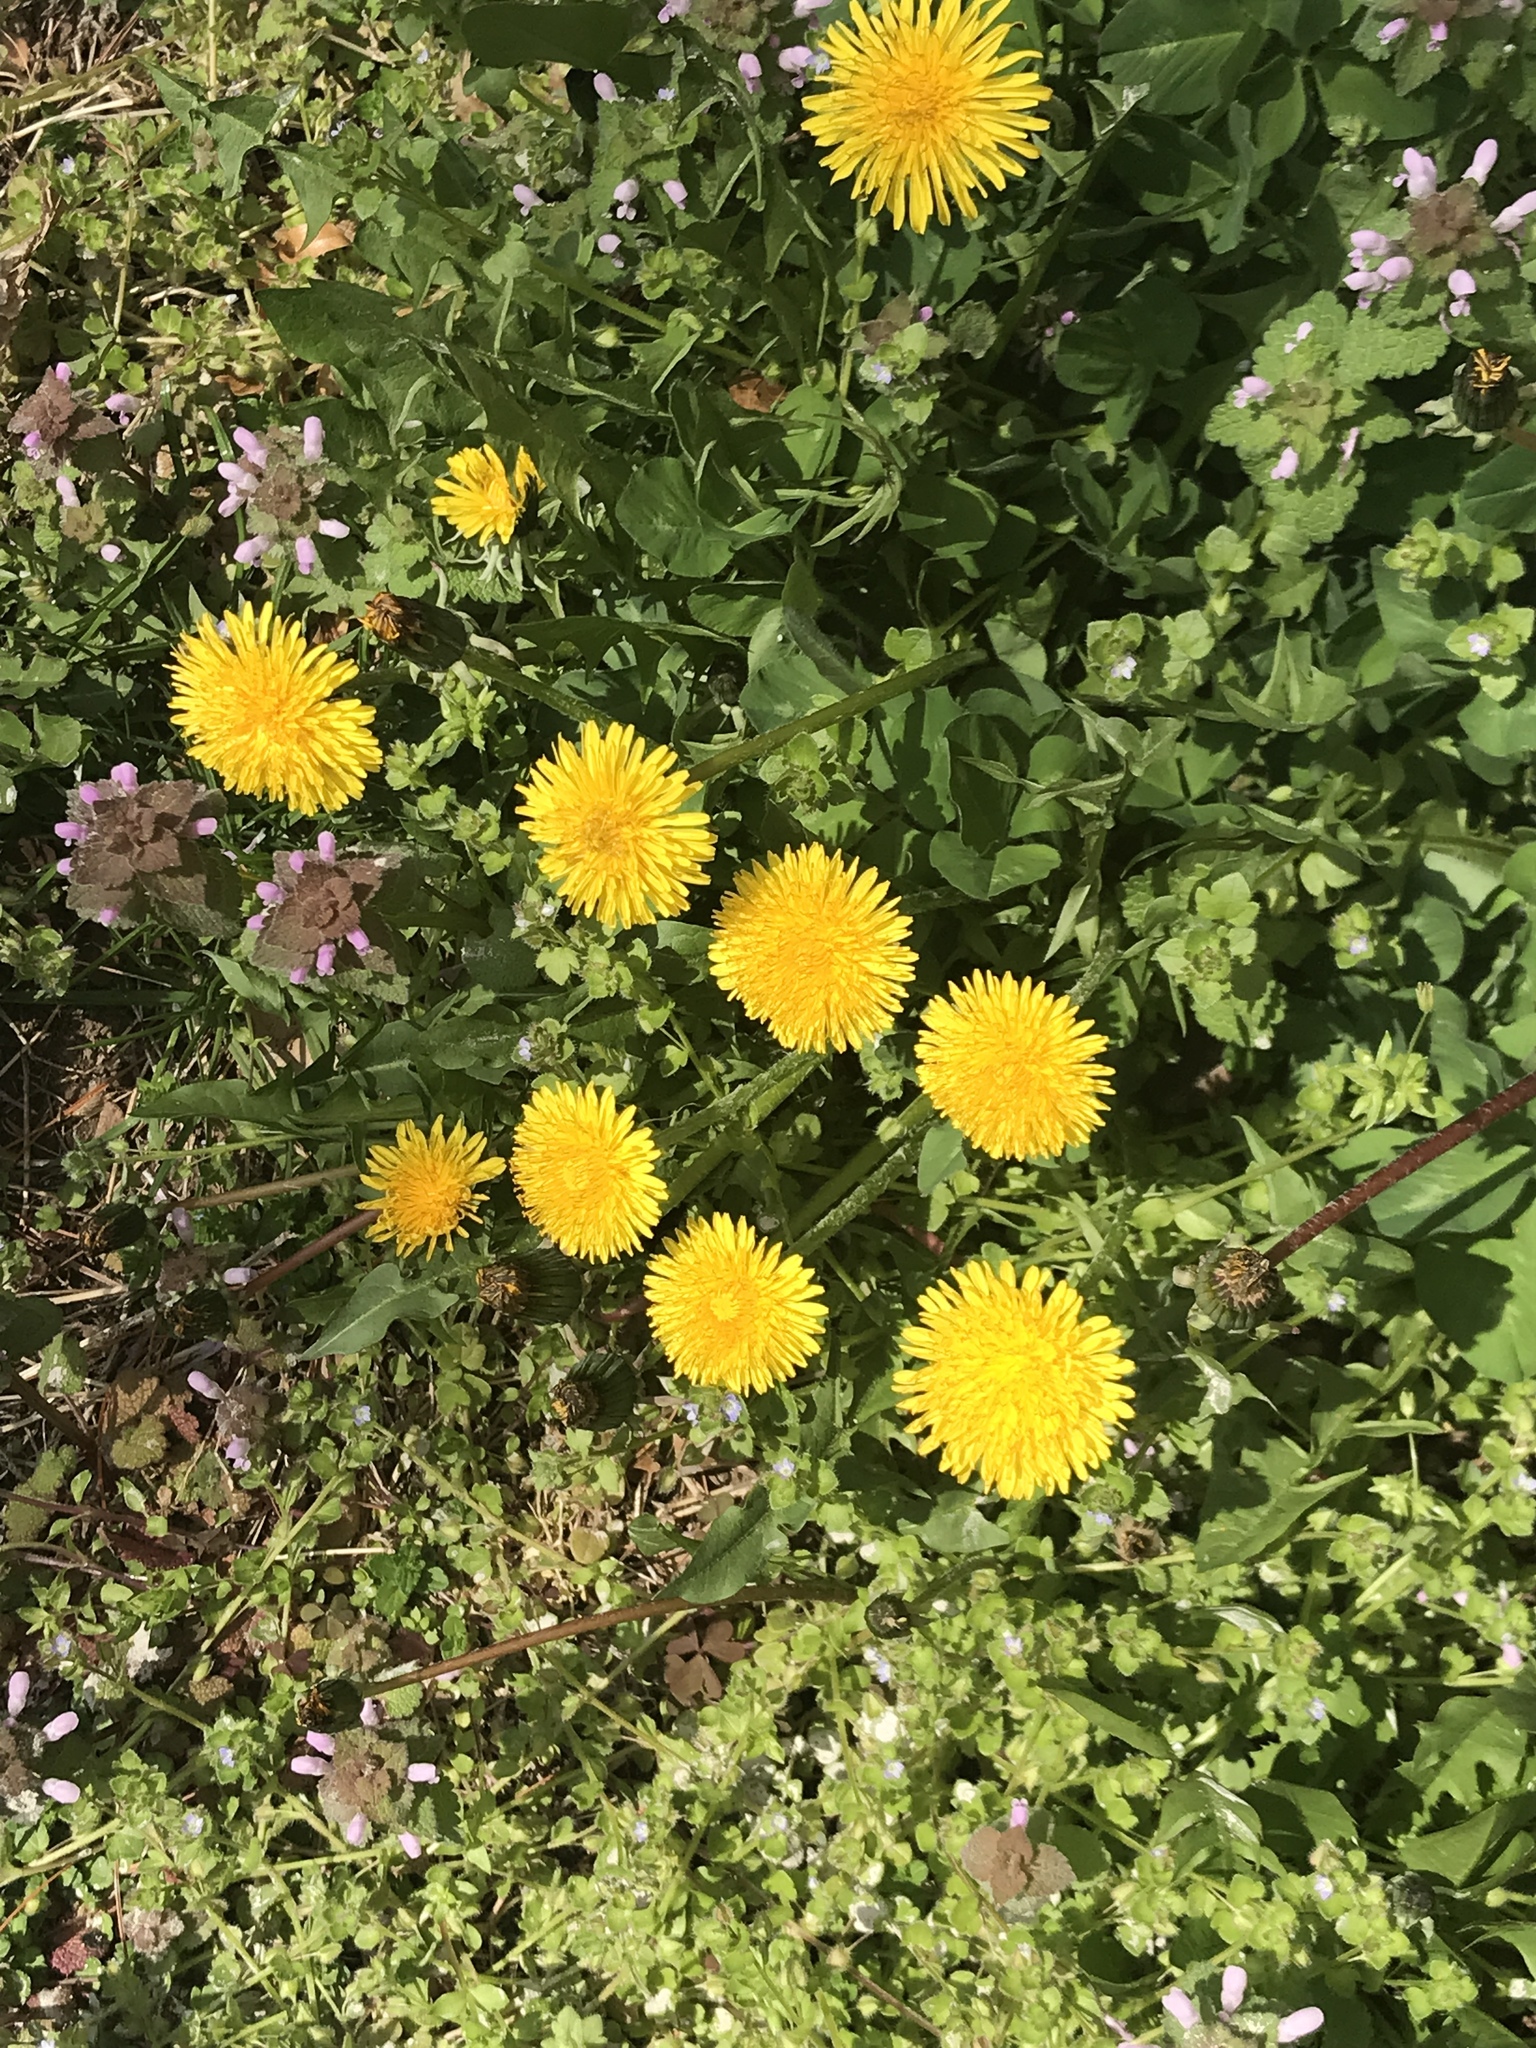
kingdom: Plantae
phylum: Tracheophyta
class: Magnoliopsida
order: Asterales
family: Asteraceae
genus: Taraxacum
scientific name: Taraxacum officinale
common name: Common dandelion
